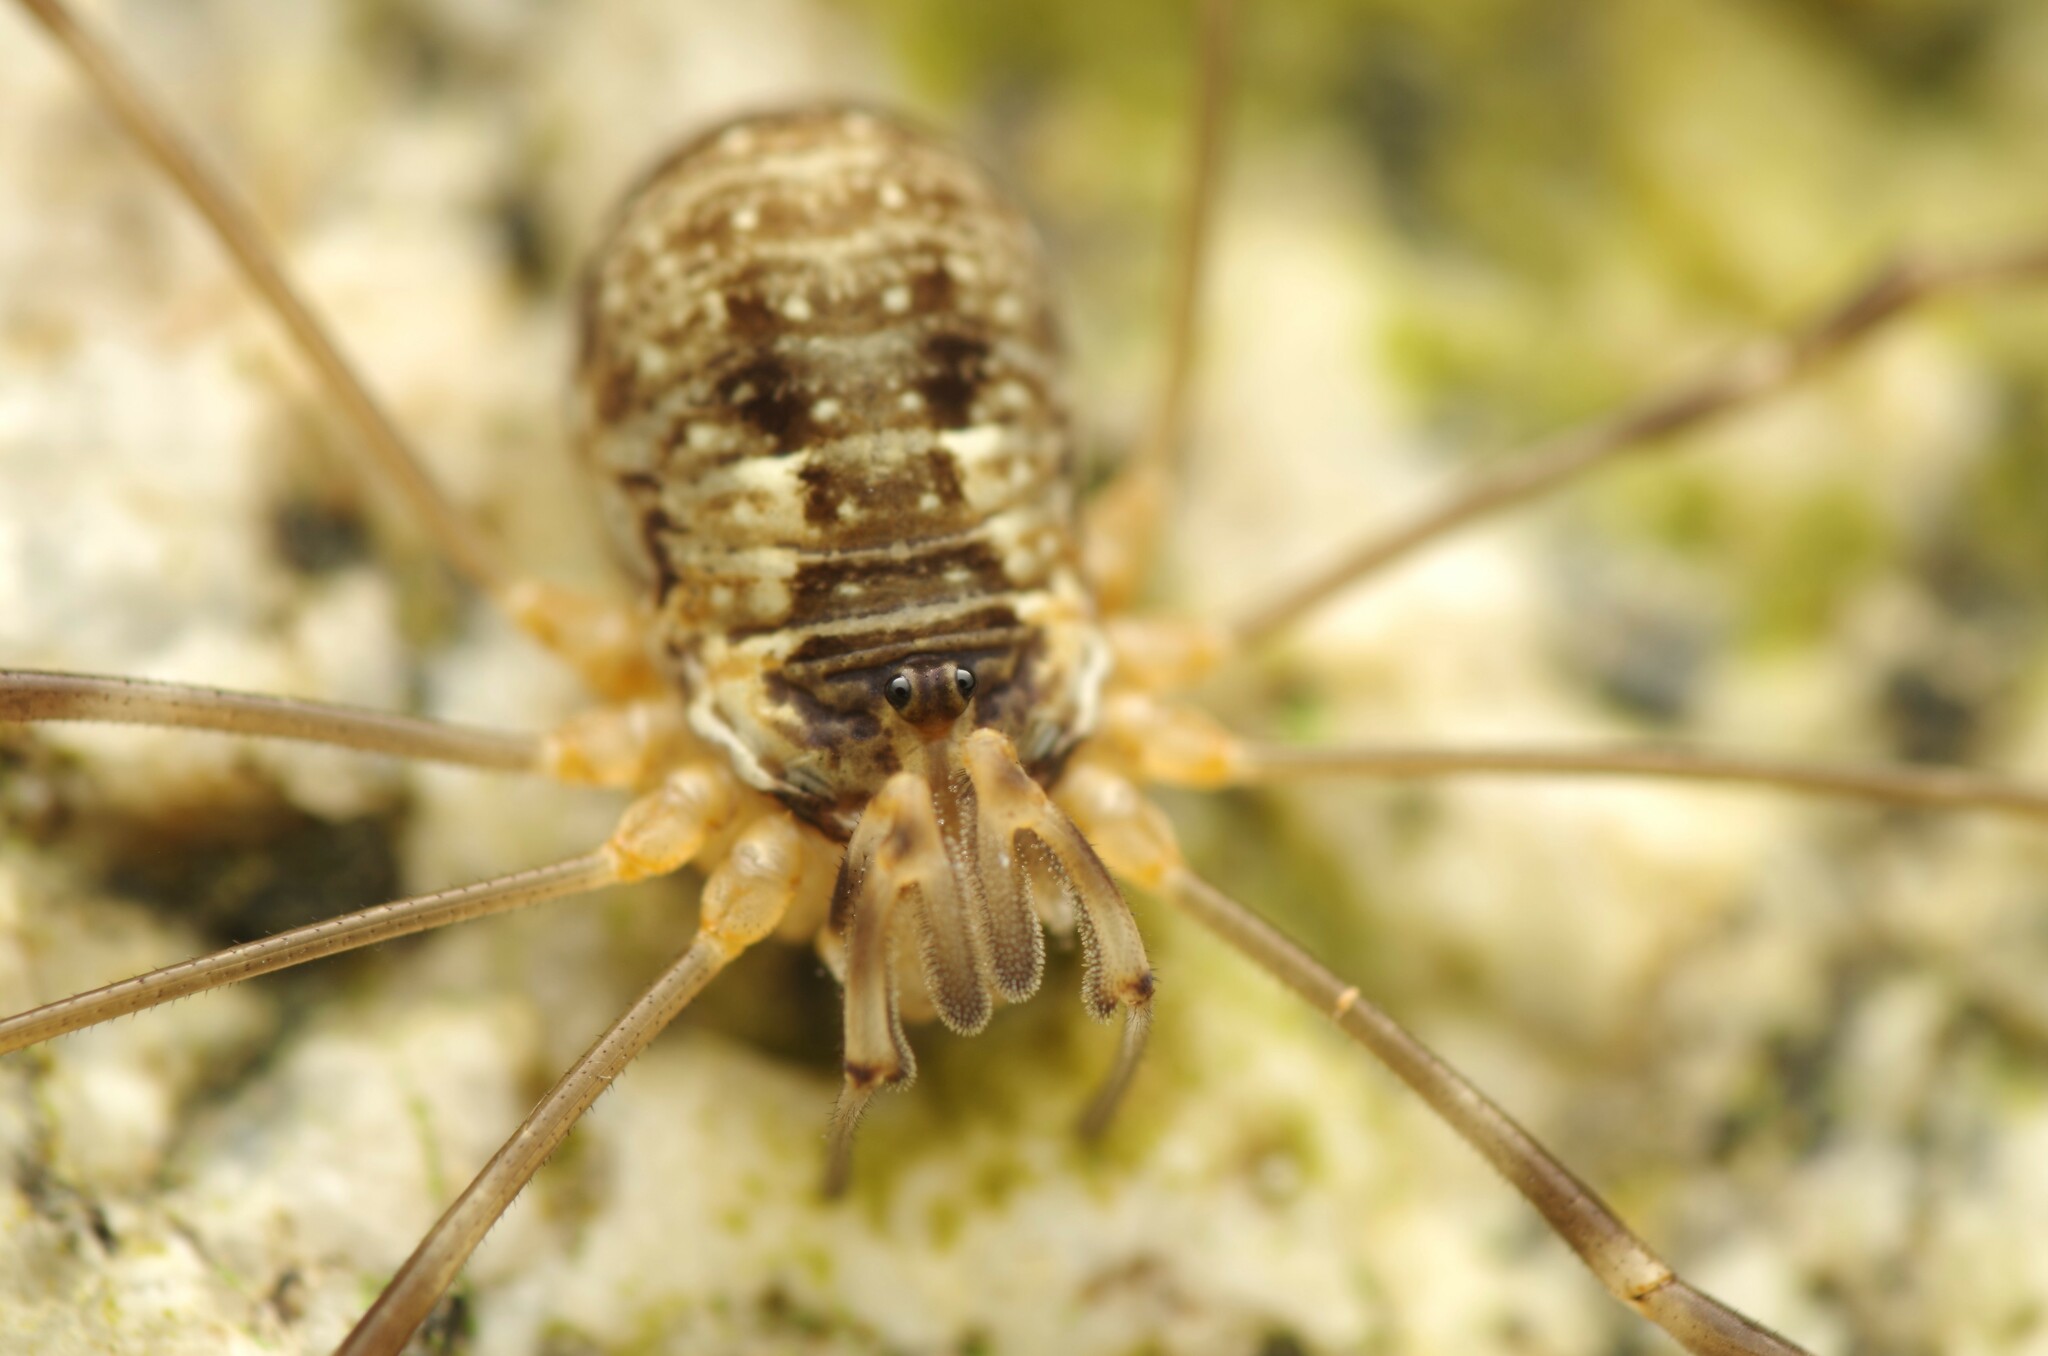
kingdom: Animalia
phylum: Arthropoda
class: Arachnida
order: Opiliones
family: Phalangiidae
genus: Dicranopalpus
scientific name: Dicranopalpus catariegensis
